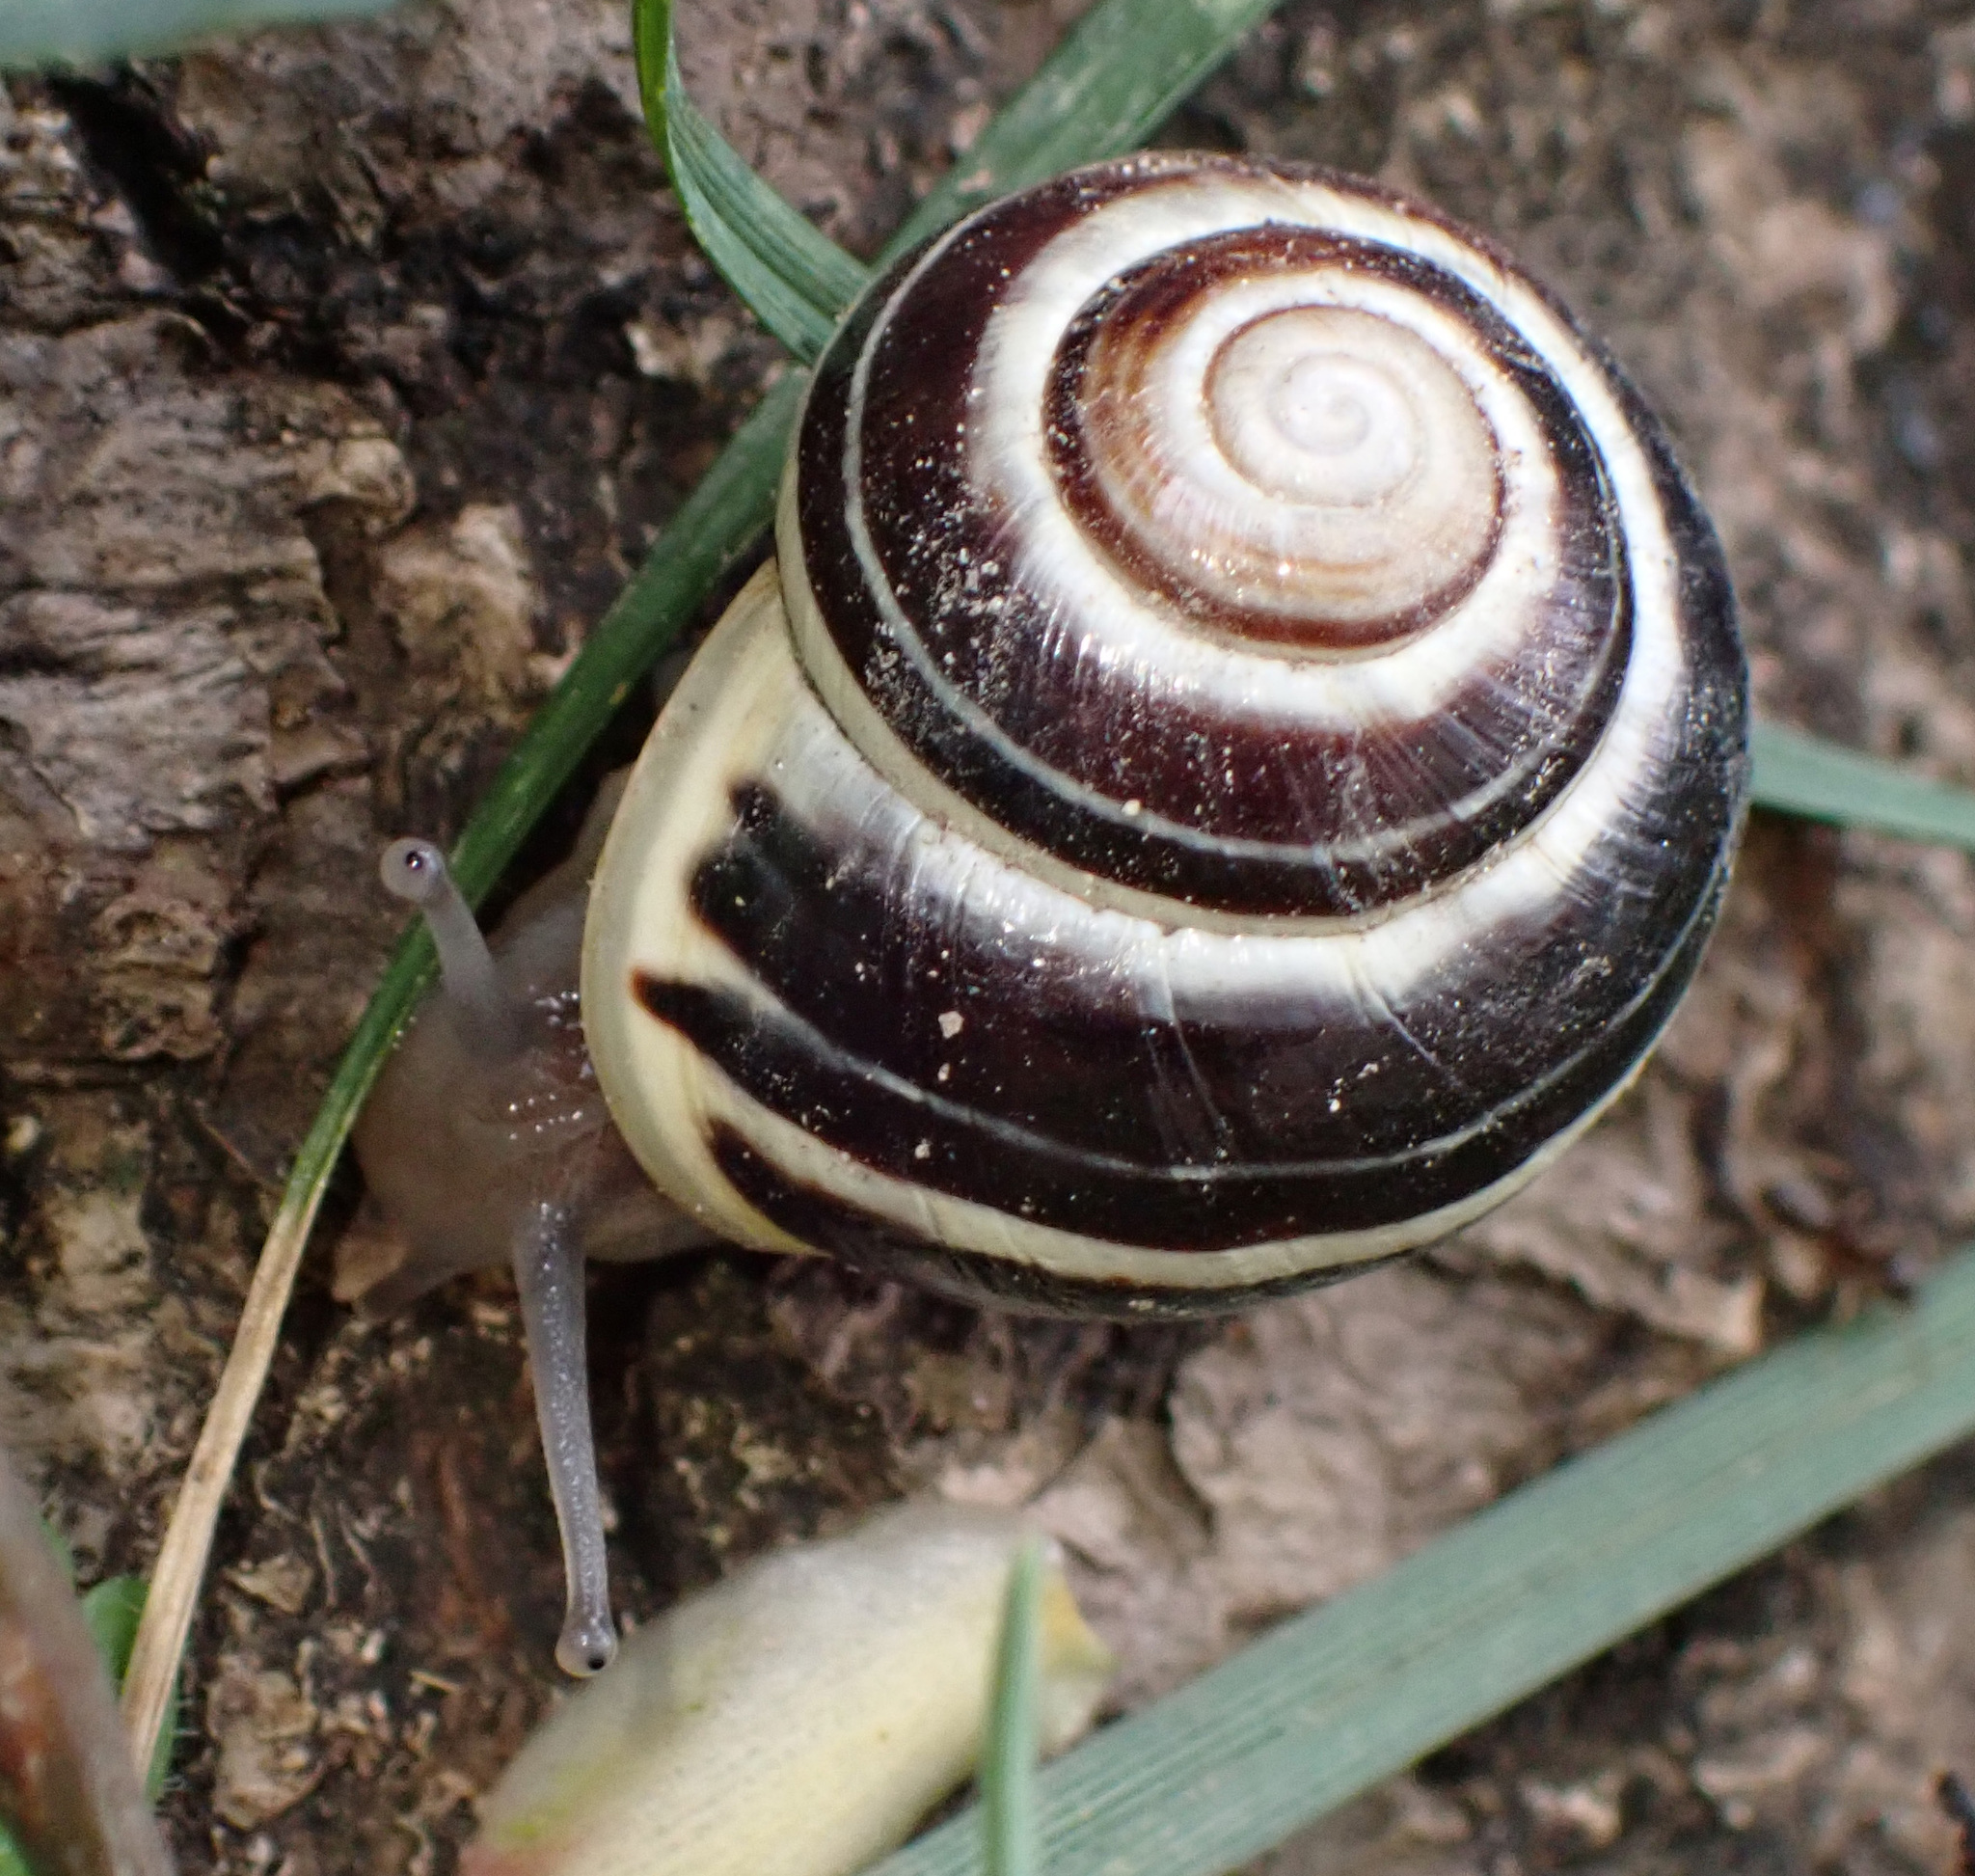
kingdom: Animalia
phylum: Mollusca
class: Gastropoda
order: Stylommatophora
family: Helicidae
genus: Cepaea
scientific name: Cepaea hortensis
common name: White-lip gardensnail
